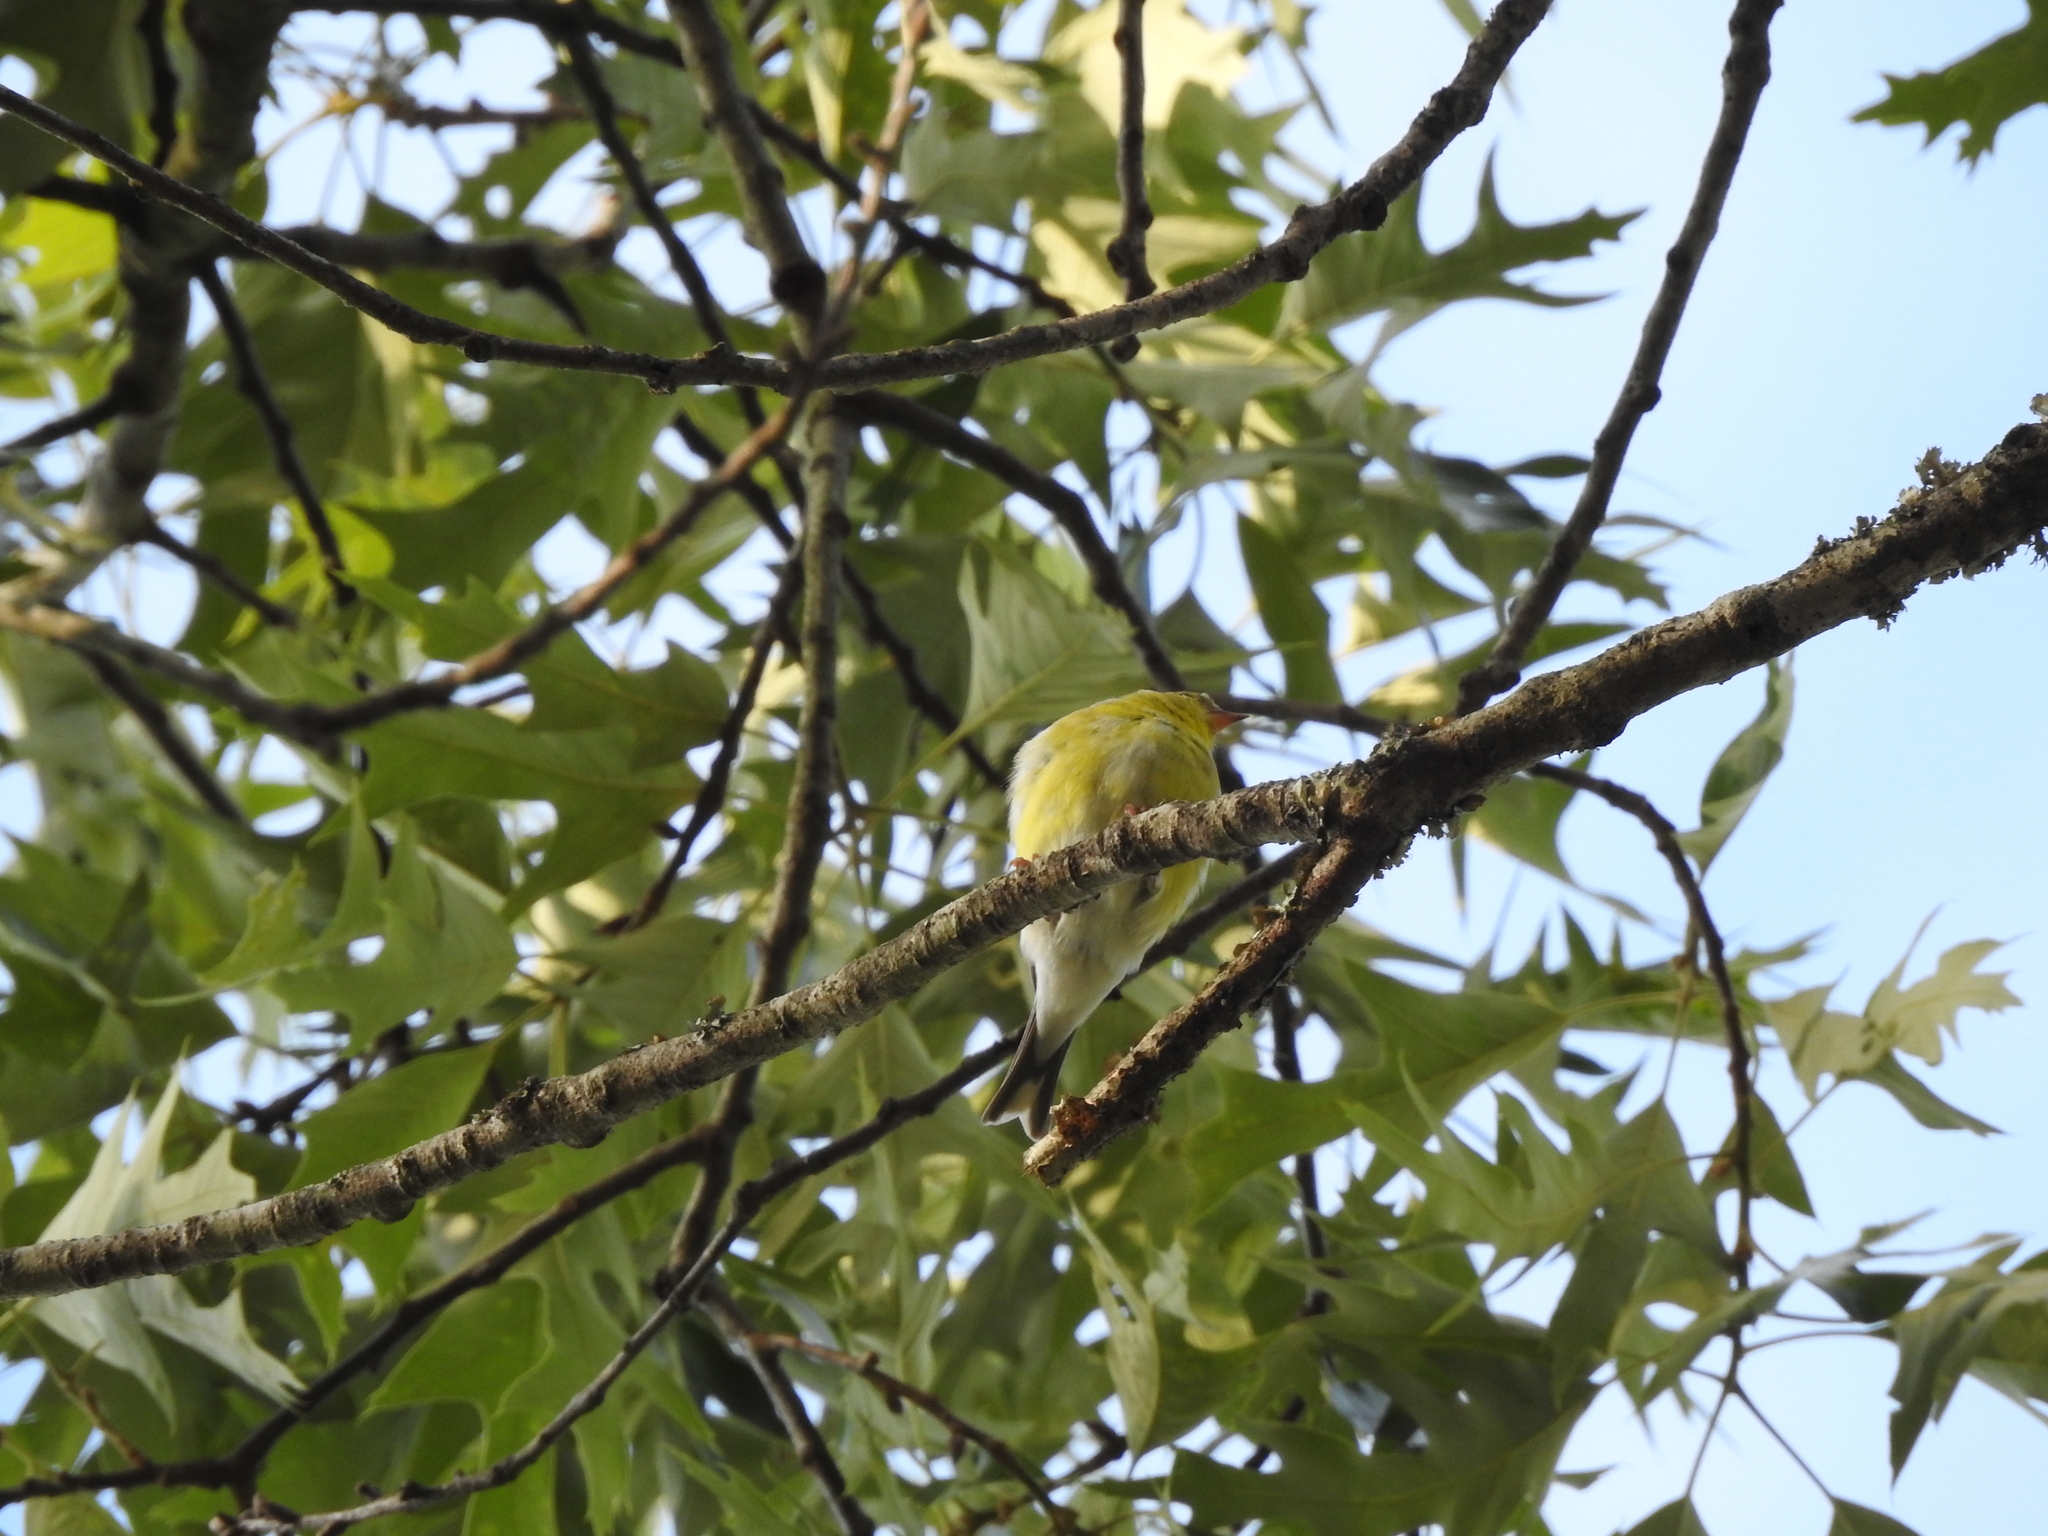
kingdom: Animalia
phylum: Chordata
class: Aves
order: Passeriformes
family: Fringillidae
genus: Spinus
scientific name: Spinus tristis
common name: American goldfinch
